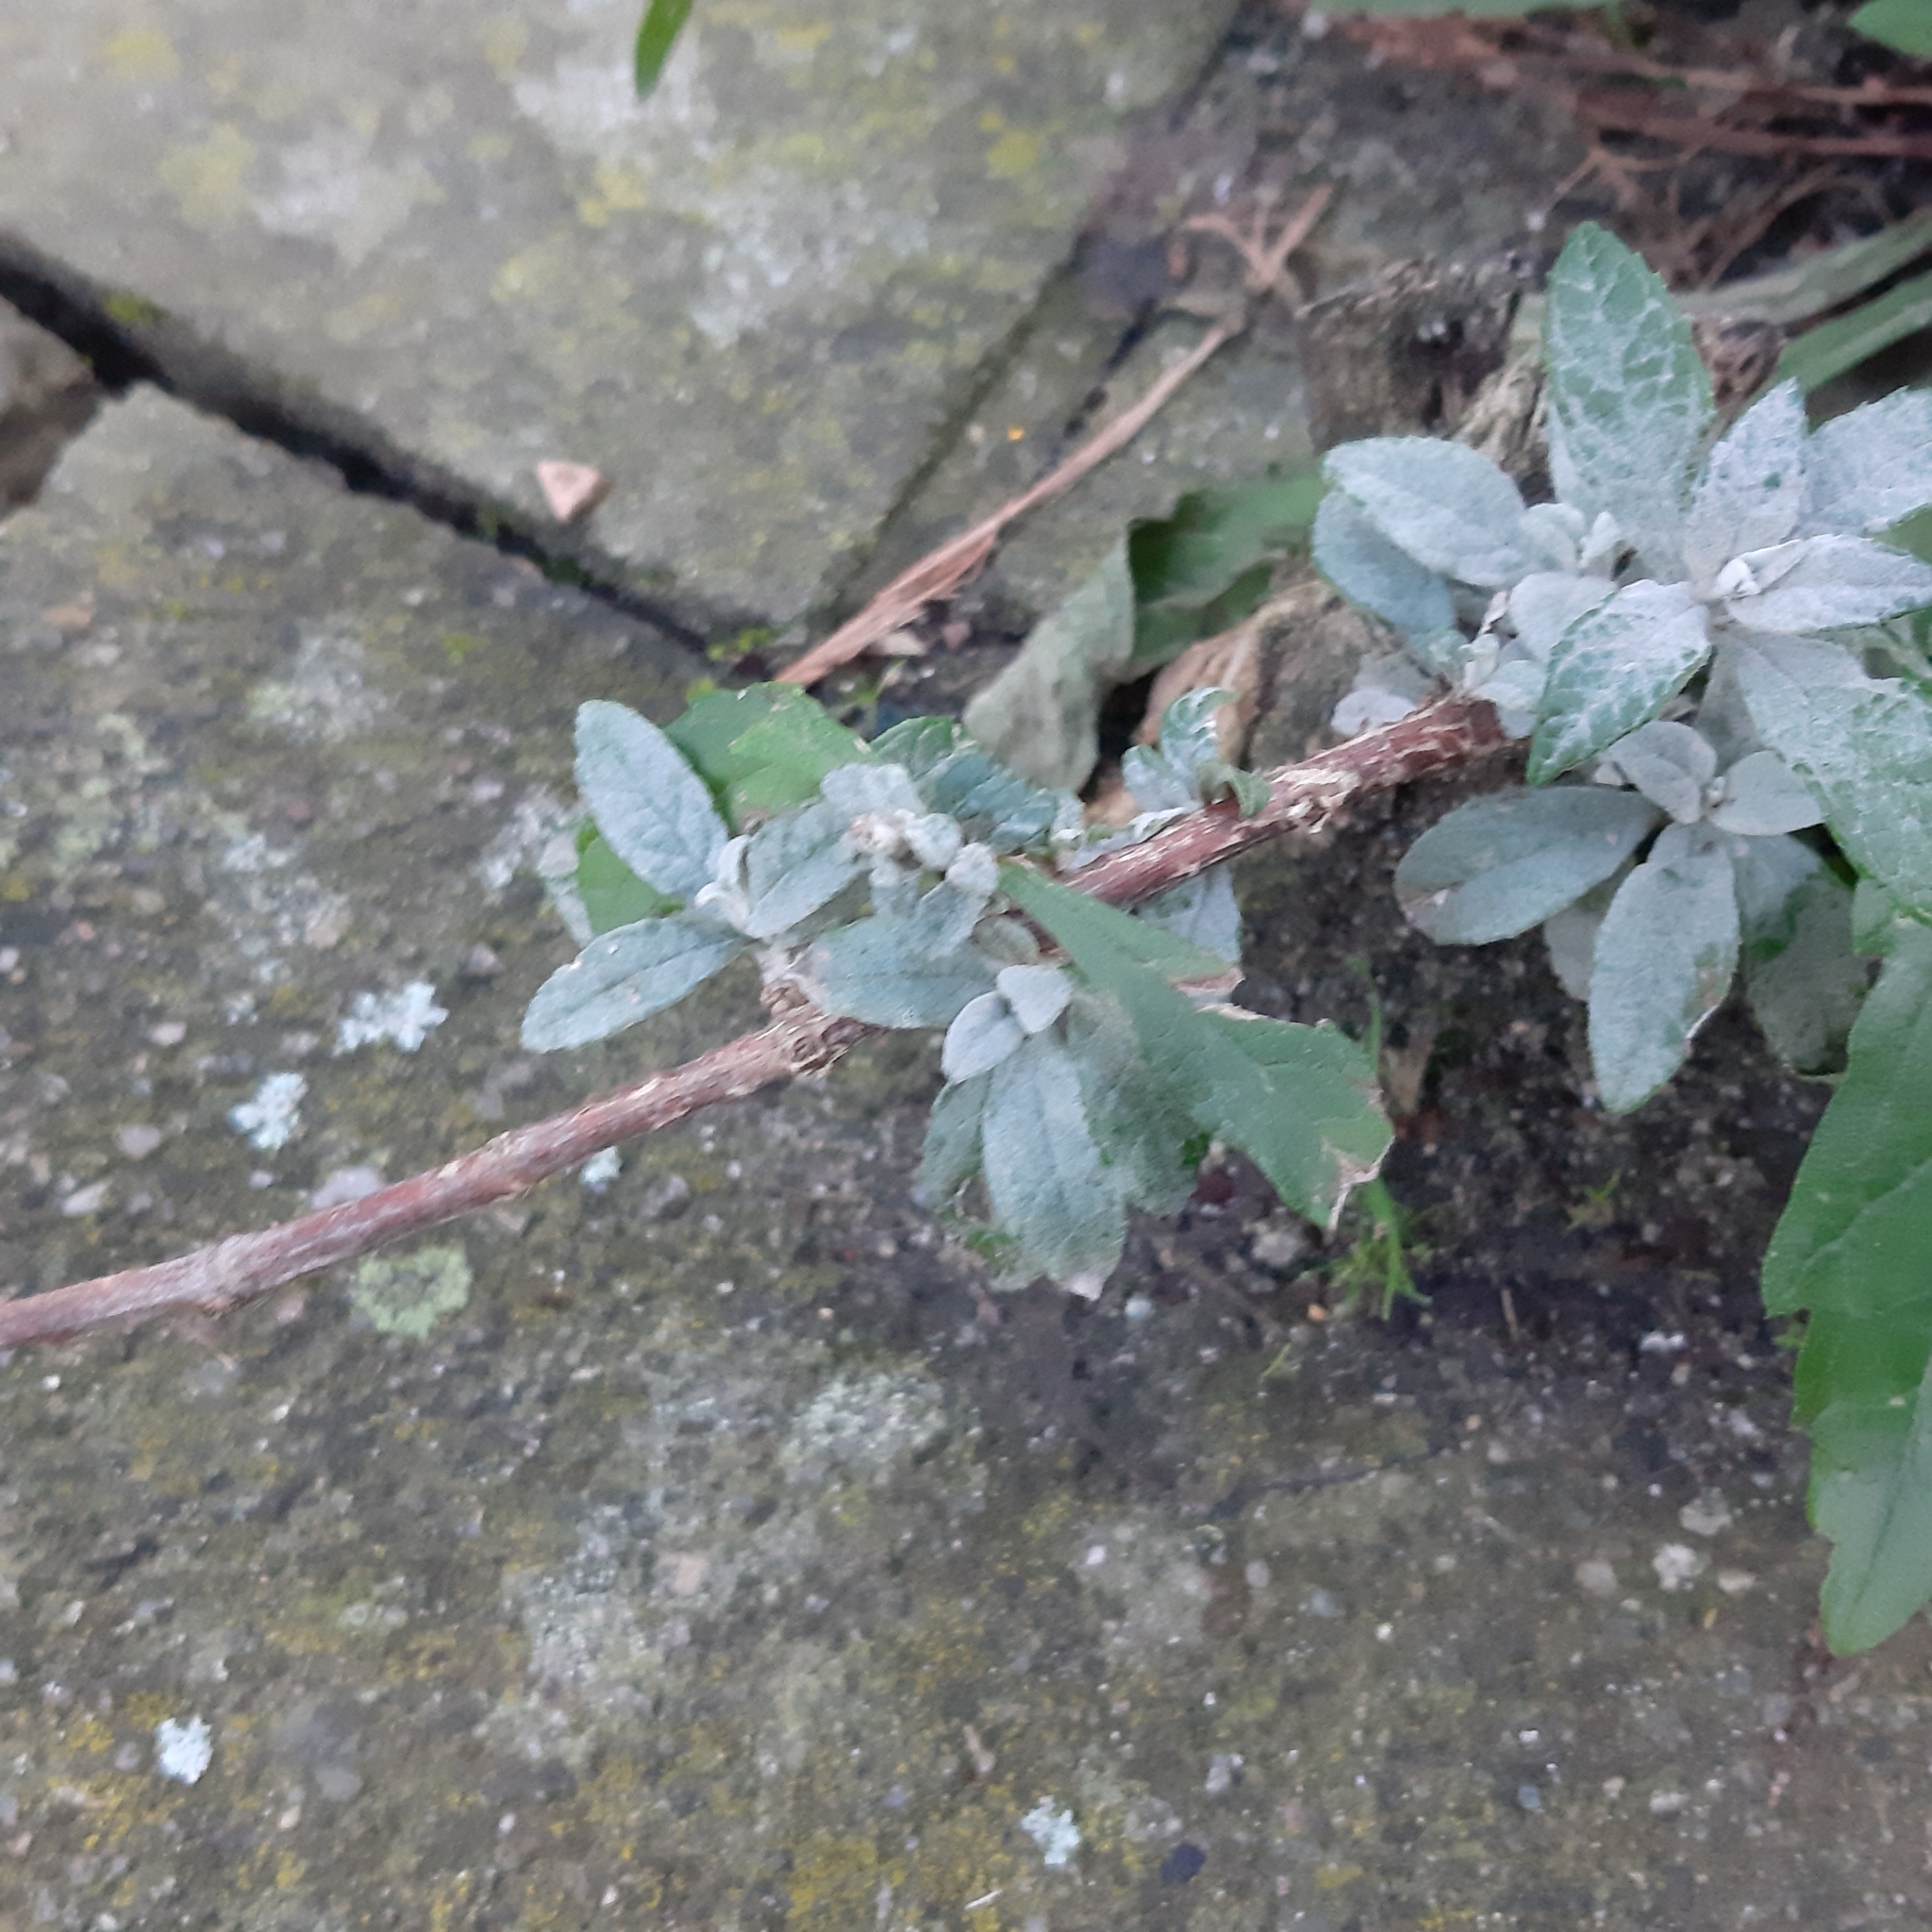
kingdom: Plantae
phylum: Tracheophyta
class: Magnoliopsida
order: Lamiales
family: Scrophulariaceae
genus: Buddleja
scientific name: Buddleja davidii
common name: Butterfly-bush
